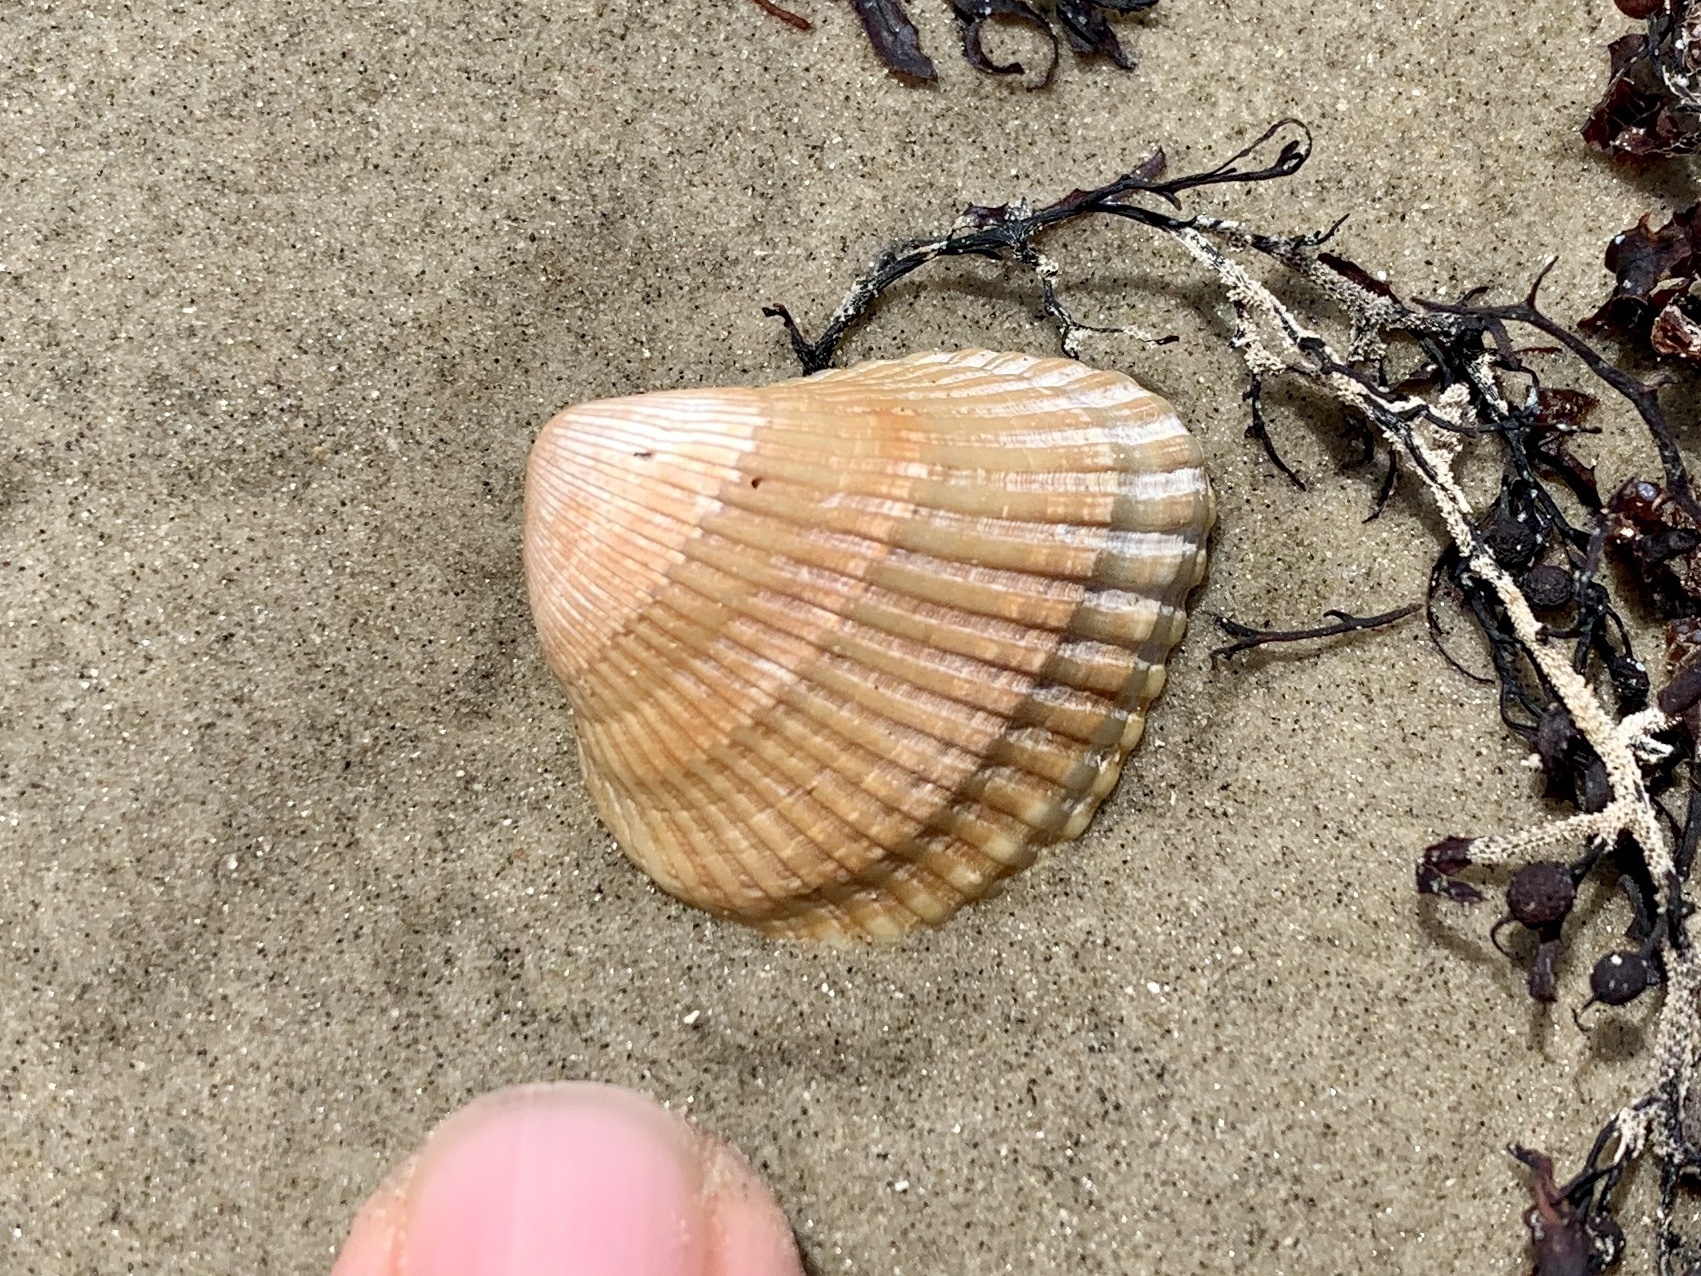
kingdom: Animalia
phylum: Mollusca
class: Bivalvia
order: Arcida
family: Noetiidae
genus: Noetia
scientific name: Noetia ponderosa
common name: Ponderous ark
